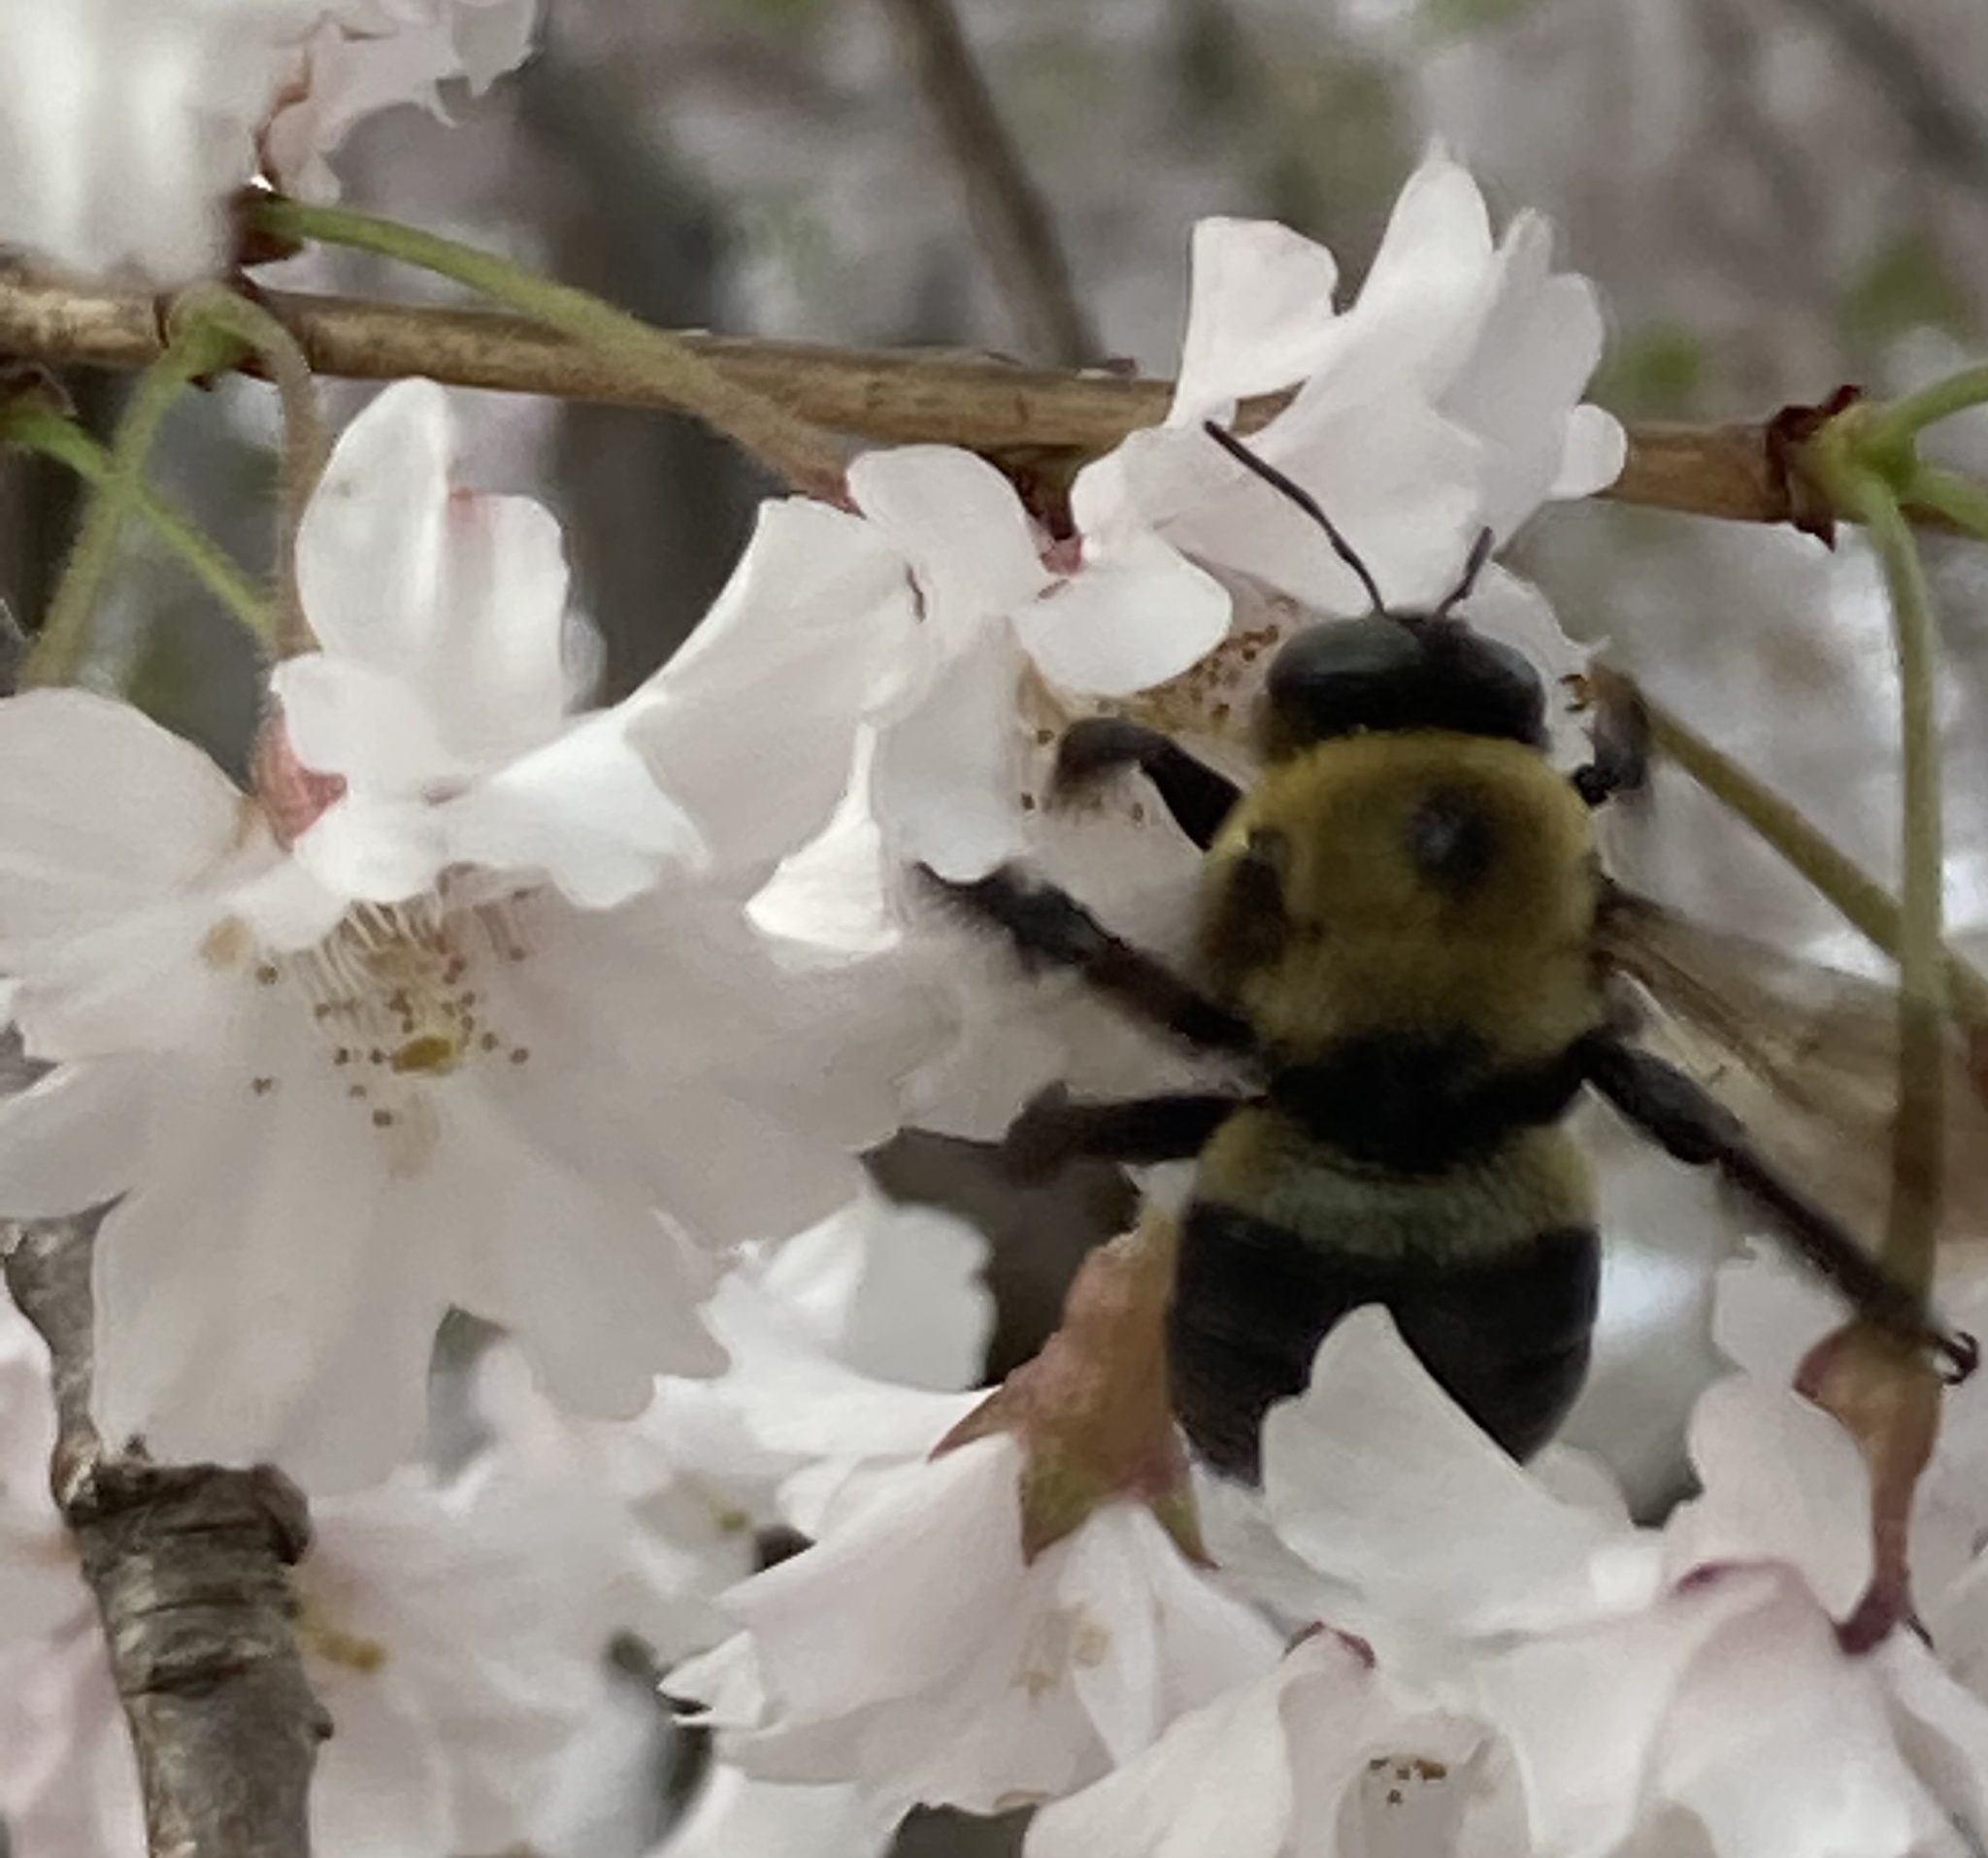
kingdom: Animalia
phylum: Arthropoda
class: Insecta
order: Hymenoptera
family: Apidae
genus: Xylocopa
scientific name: Xylocopa virginica
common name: Carpenter bee
